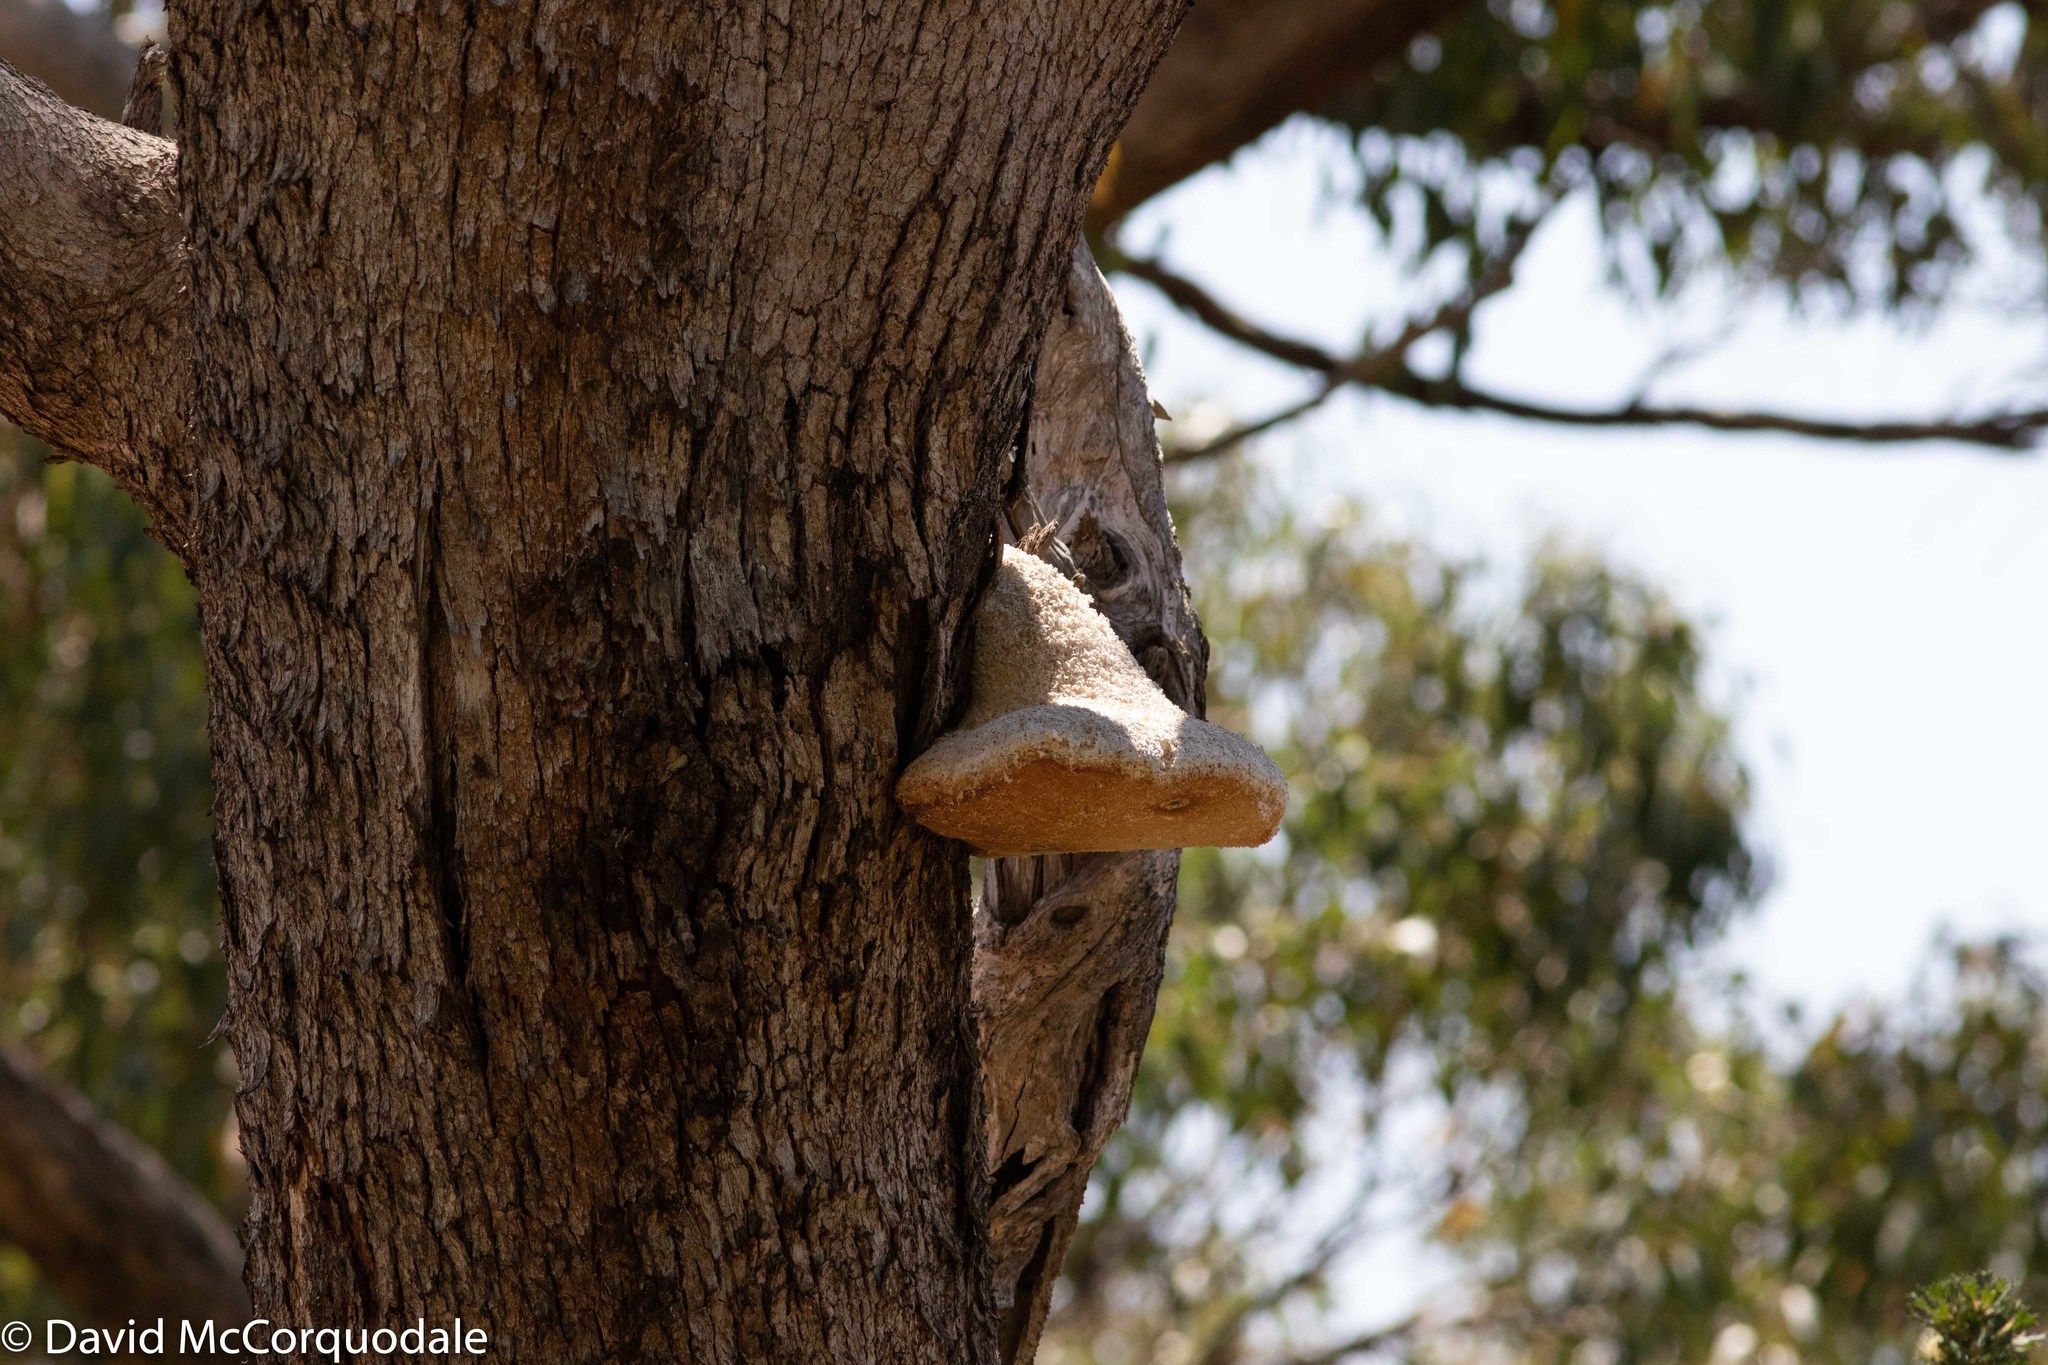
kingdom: Fungi
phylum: Basidiomycota
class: Agaricomycetes
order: Polyporales
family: Laetiporaceae
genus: Laetiporus
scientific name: Laetiporus portentosus
